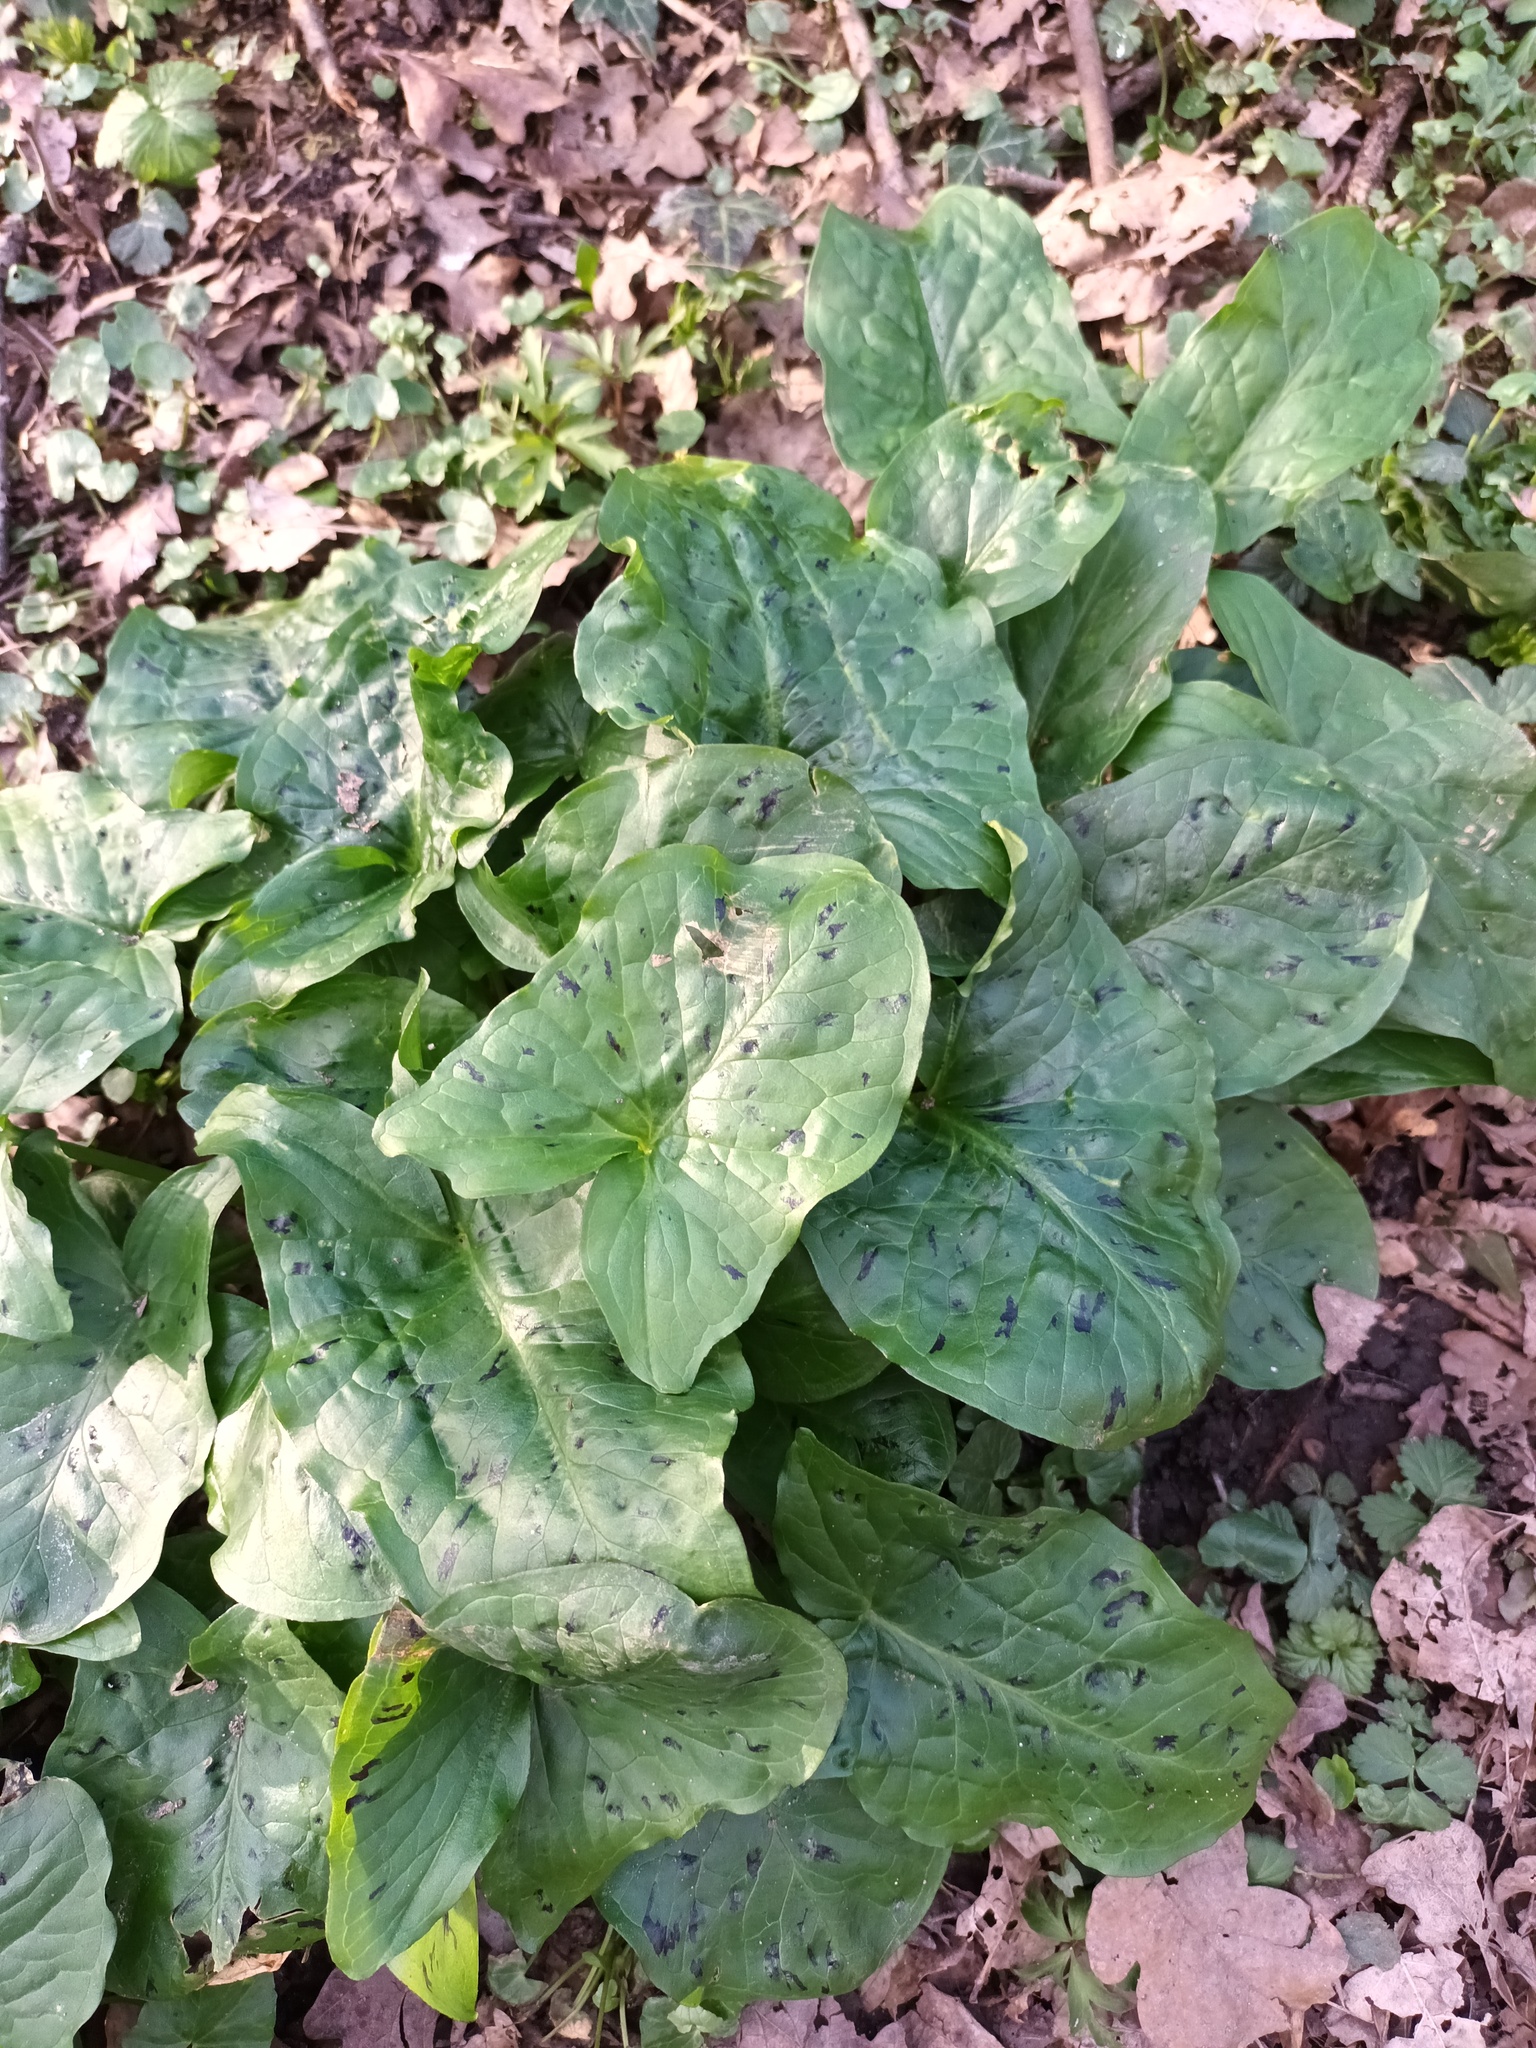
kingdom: Plantae
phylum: Tracheophyta
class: Liliopsida
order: Alismatales
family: Araceae
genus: Arum
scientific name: Arum maculatum
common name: Lords-and-ladies
